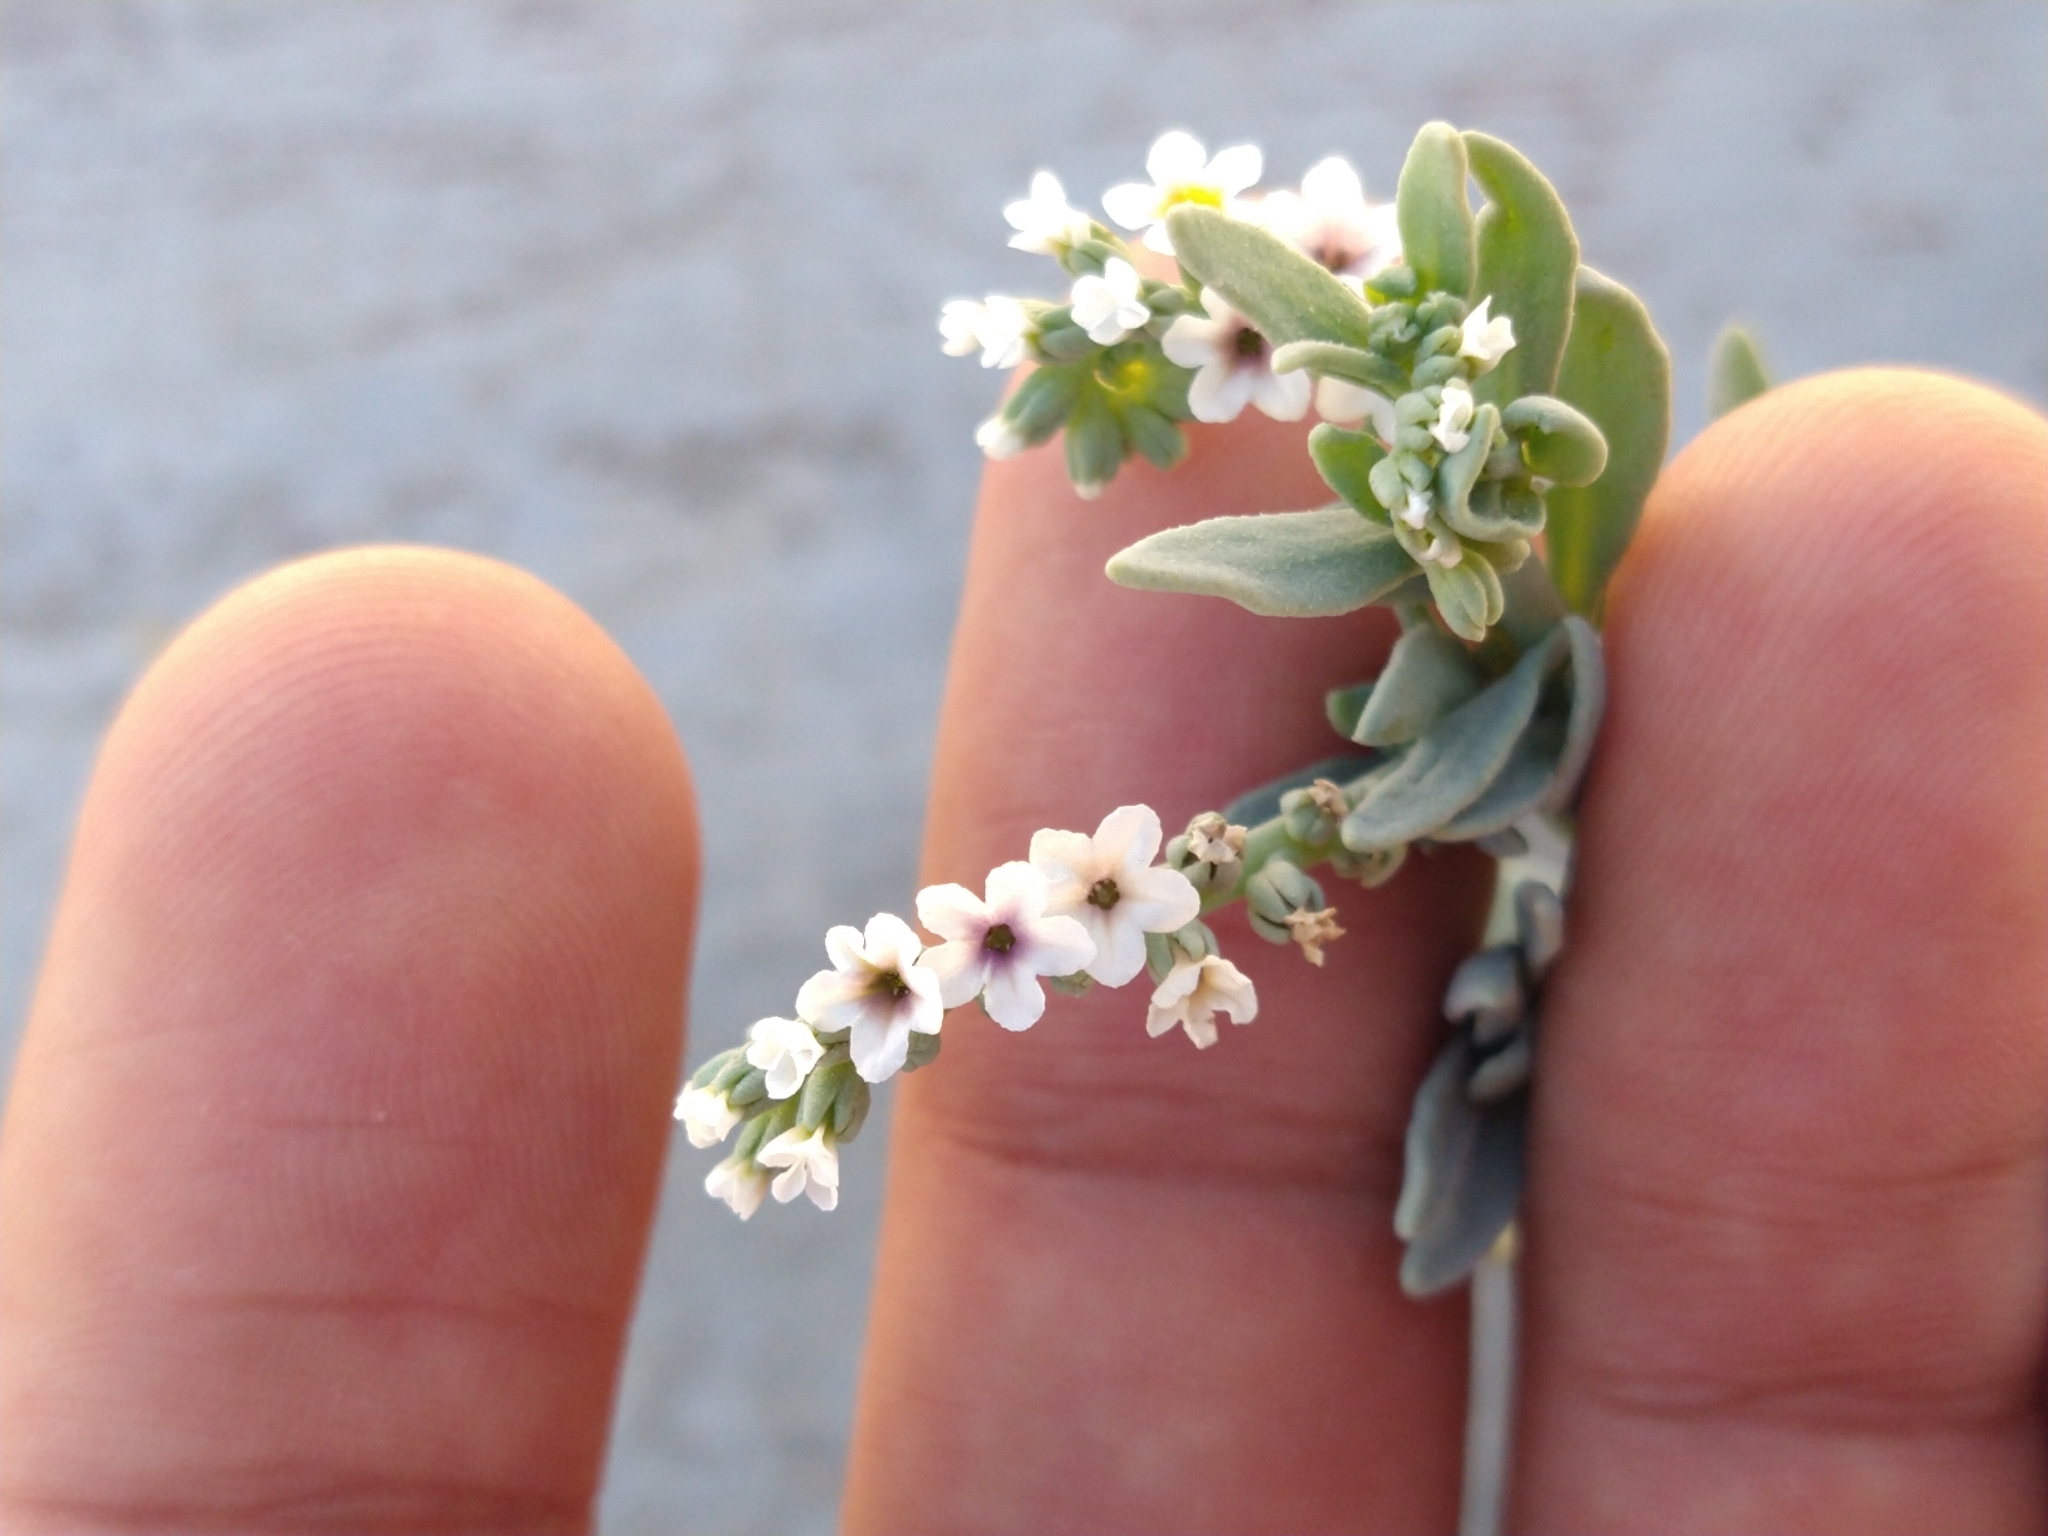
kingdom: Plantae
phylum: Tracheophyta
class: Magnoliopsida
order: Boraginales
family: Heliotropiaceae
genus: Heliotropium
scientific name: Heliotropium curassavicum
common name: Seaside heliotrope
